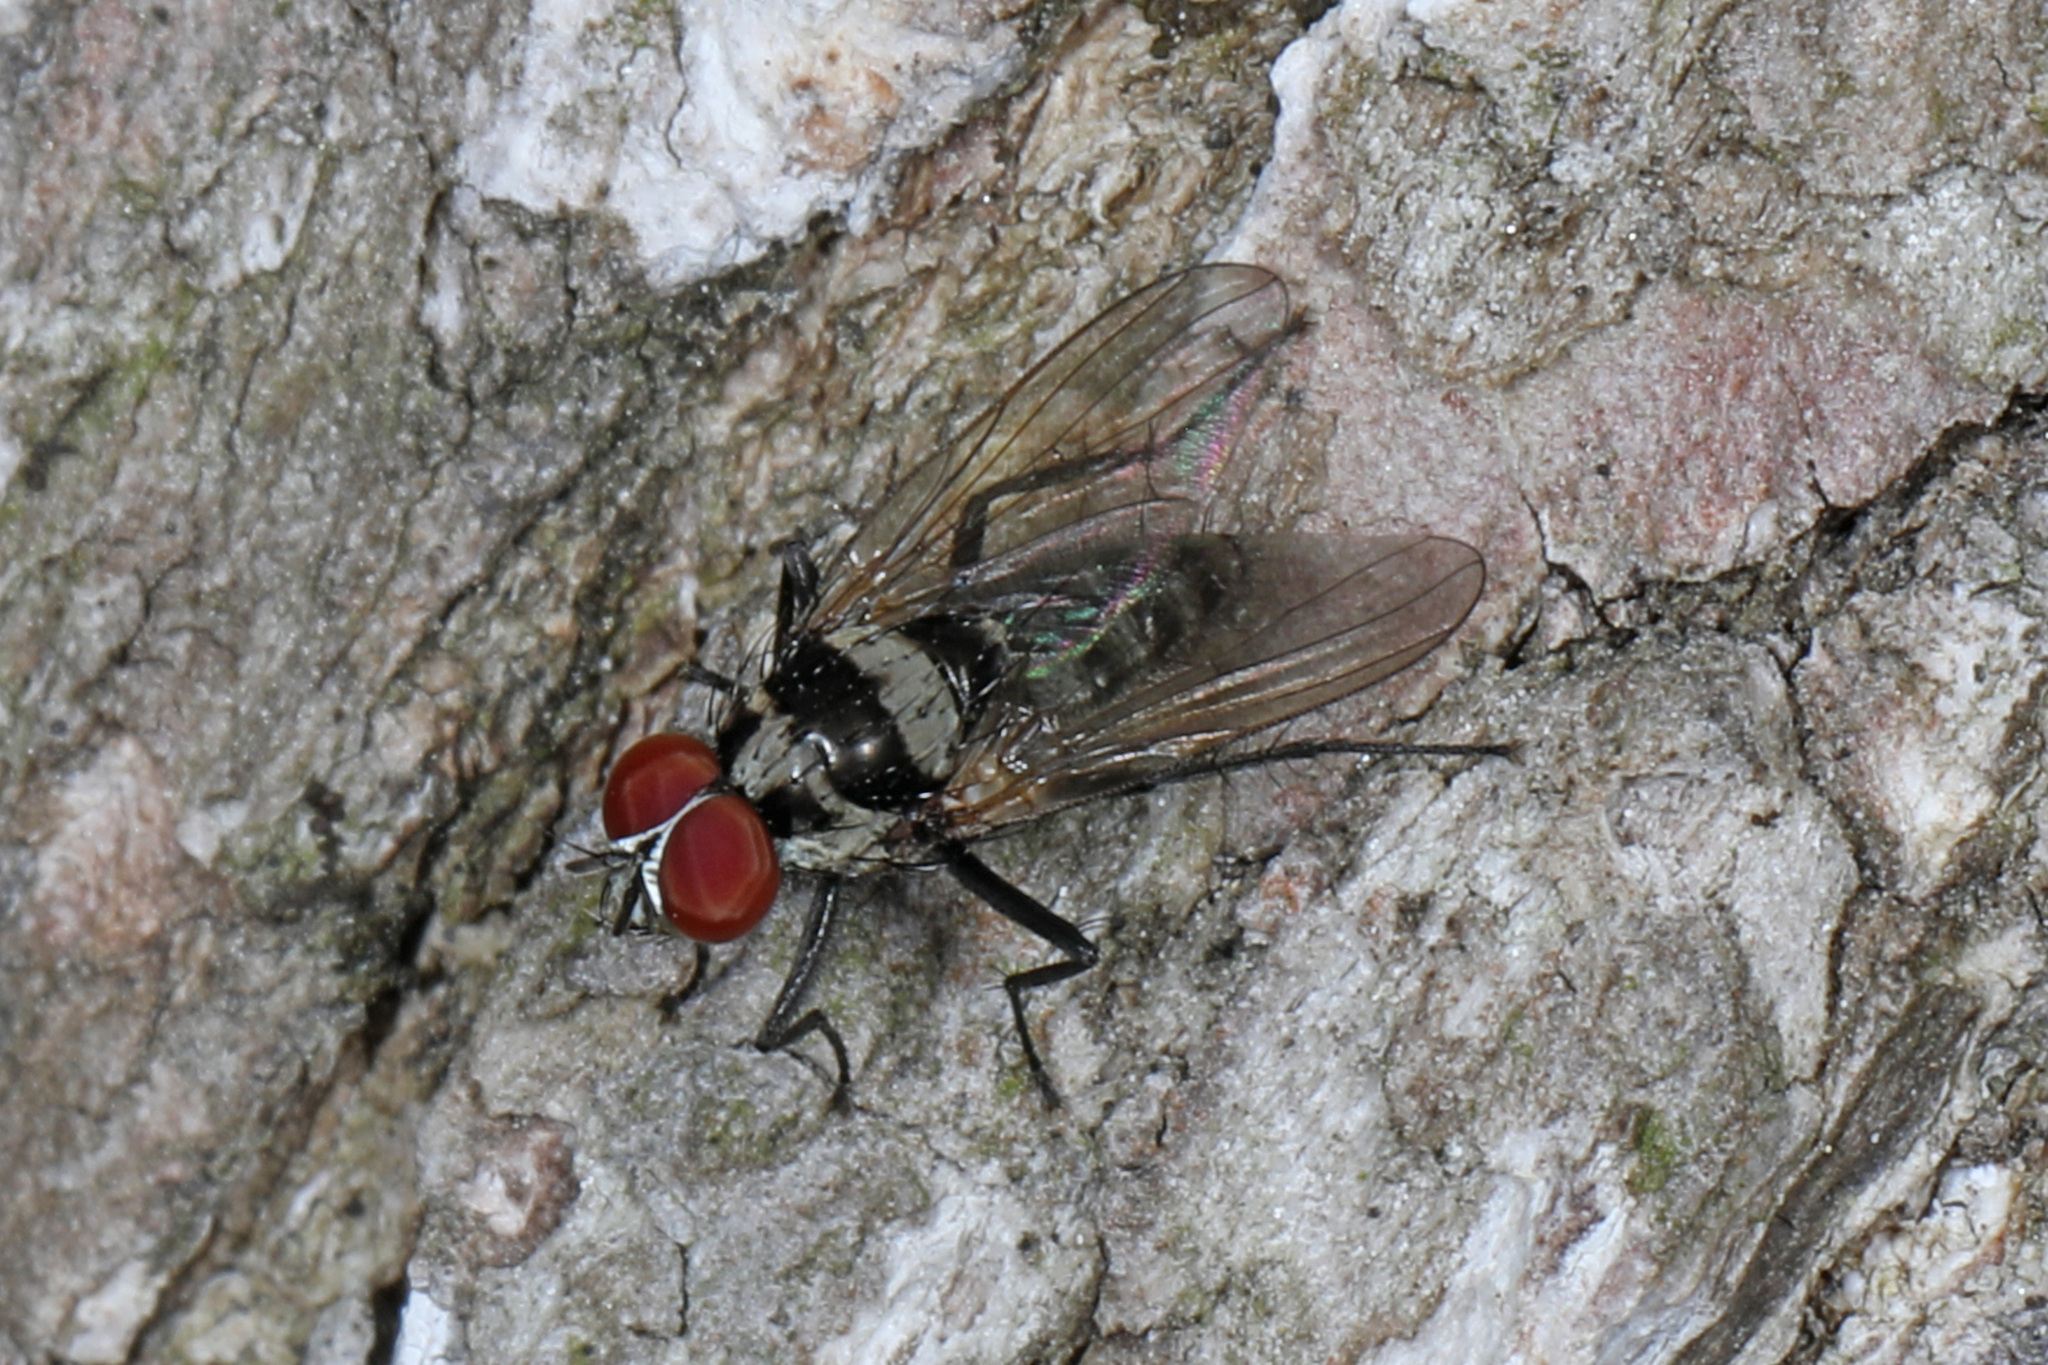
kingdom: Animalia
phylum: Arthropoda
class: Insecta
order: Diptera
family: Anthomyiidae
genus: Anthomyia
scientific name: Anthomyia oculifera
